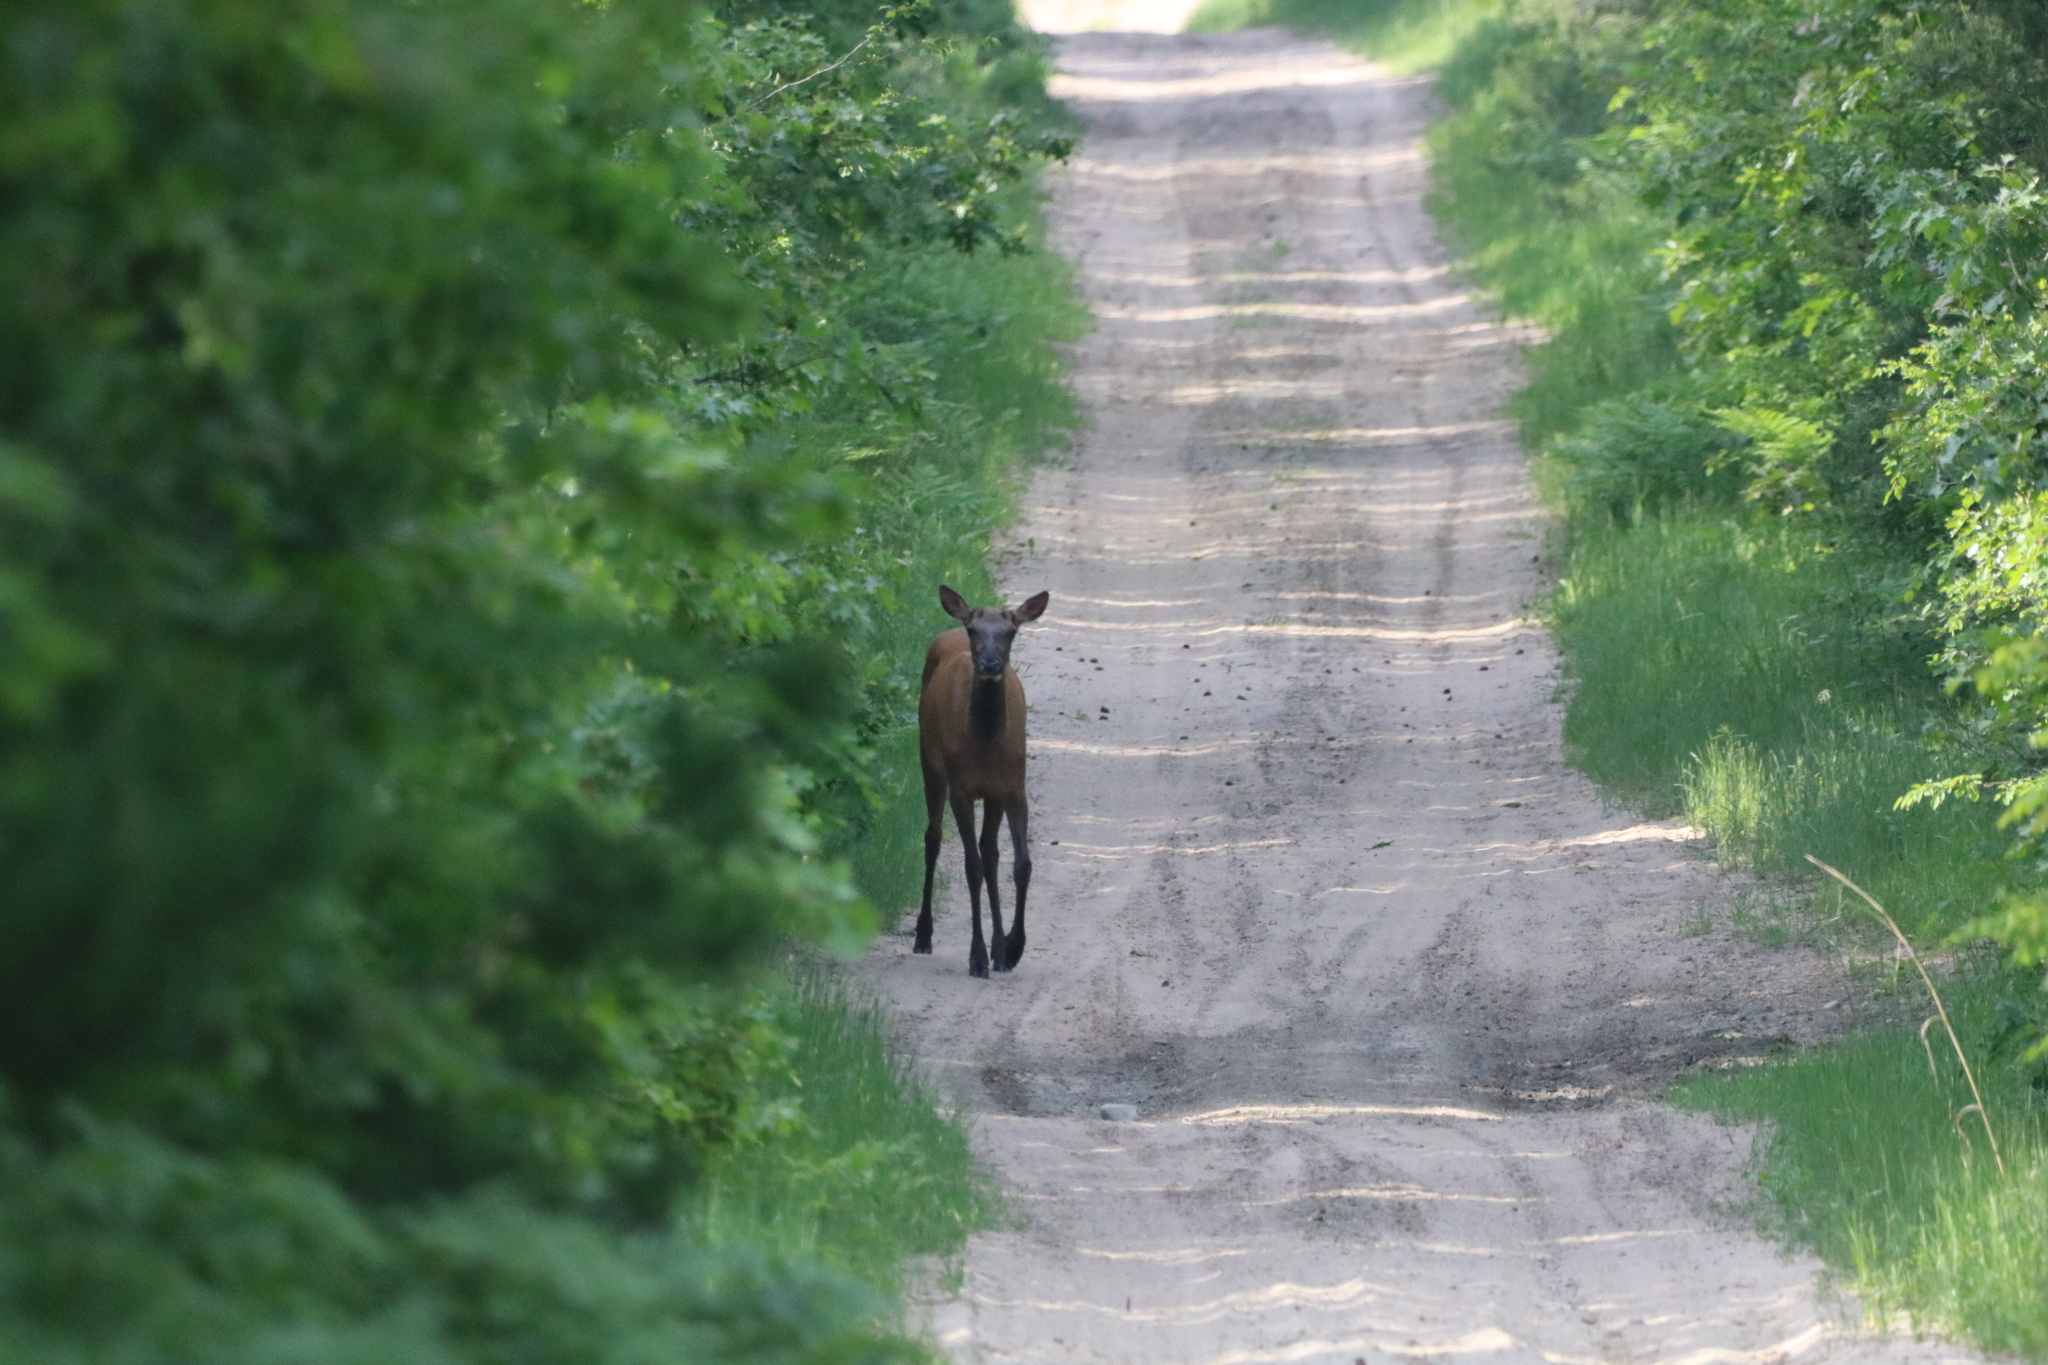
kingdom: Animalia
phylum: Chordata
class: Mammalia
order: Artiodactyla
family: Cervidae
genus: Cervus
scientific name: Cervus elaphus
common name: Red deer
